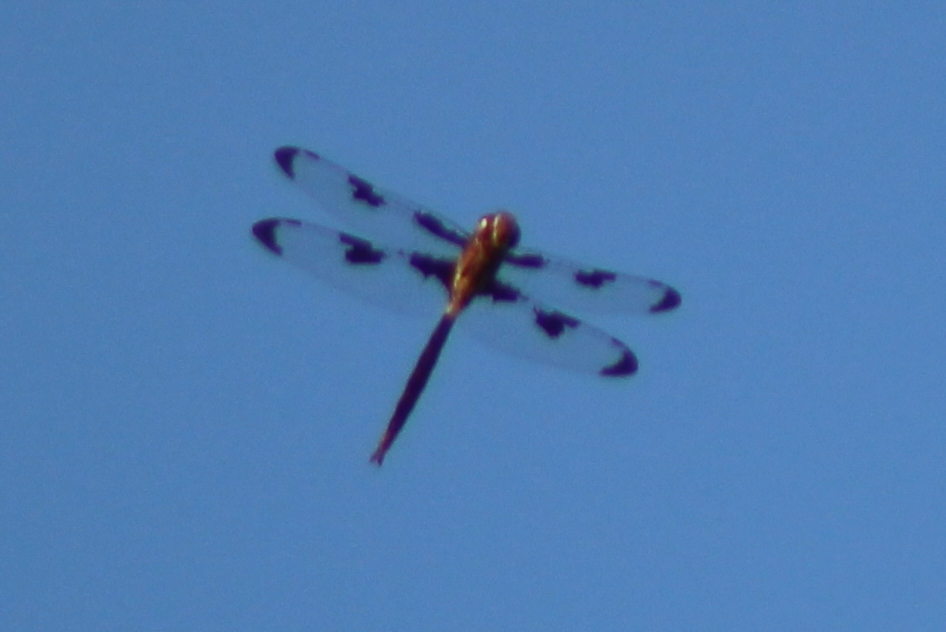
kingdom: Animalia
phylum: Arthropoda
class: Insecta
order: Odonata
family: Corduliidae
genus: Epitheca
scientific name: Epitheca princeps
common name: Prince baskettail
